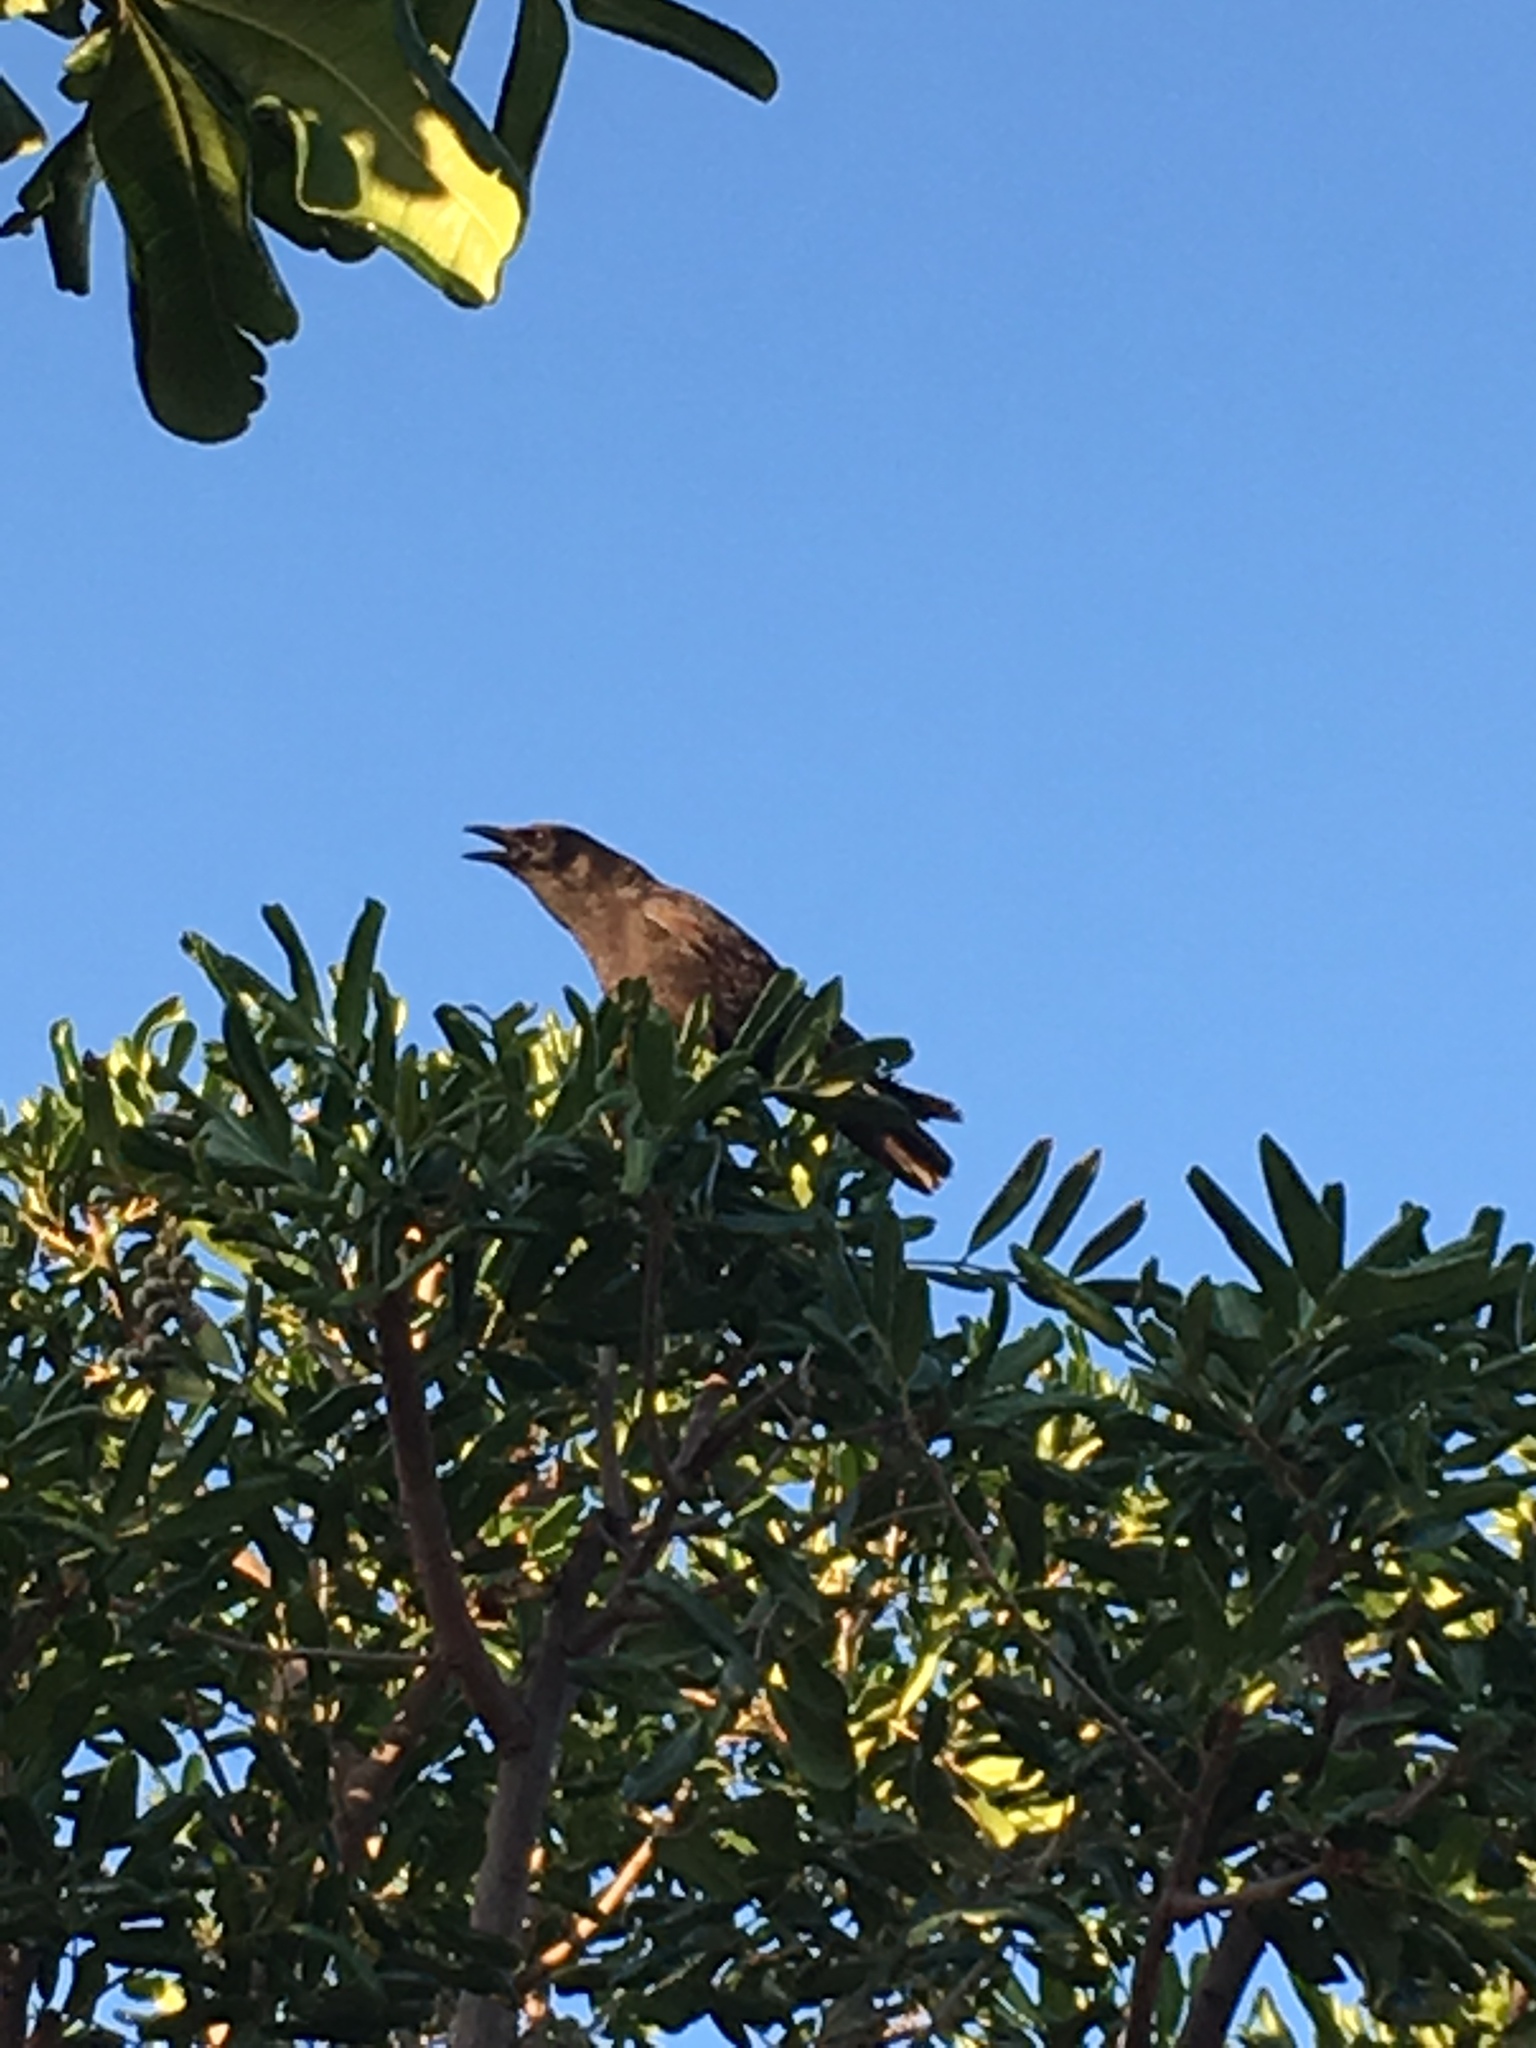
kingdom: Animalia
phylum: Chordata
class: Aves
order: Passeriformes
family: Corvidae
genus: Corvus
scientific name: Corvus brachyrhynchos
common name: American crow
